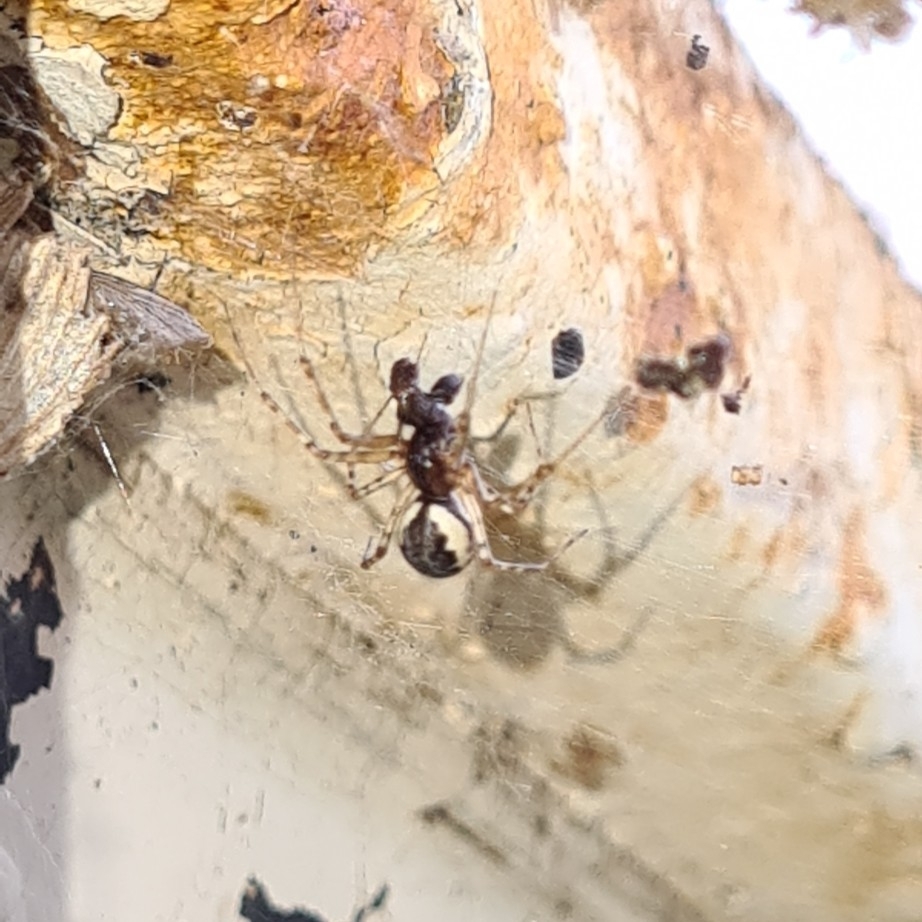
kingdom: Animalia
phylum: Arthropoda
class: Arachnida
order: Araneae
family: Linyphiidae
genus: Neriene
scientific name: Neriene montana
